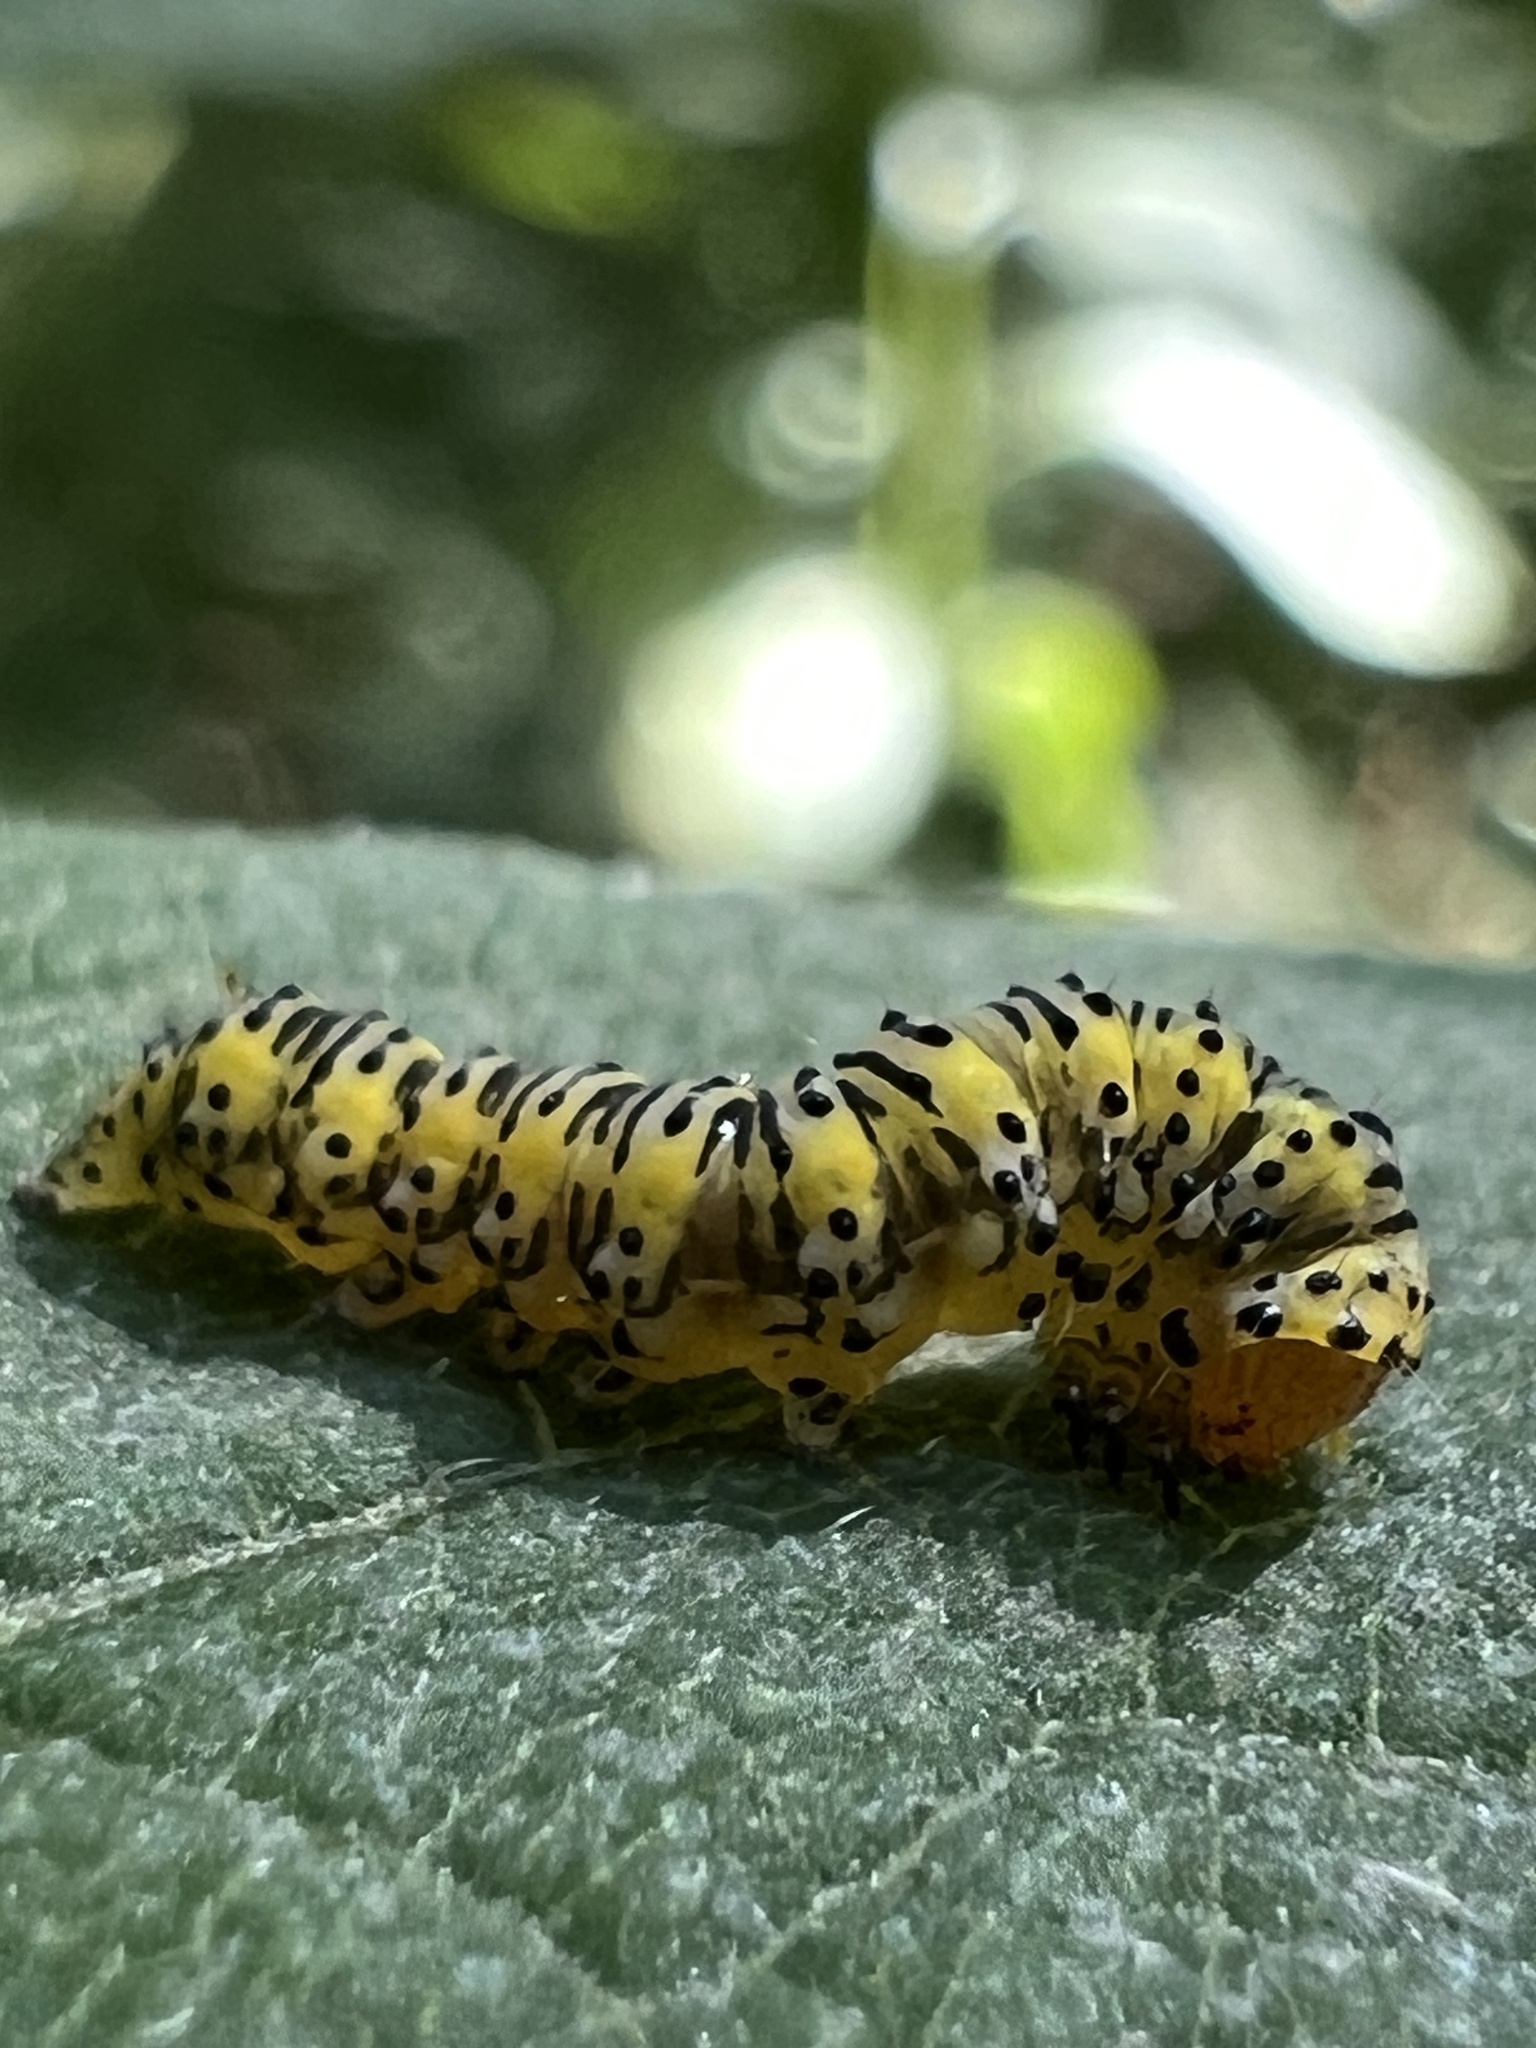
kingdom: Animalia
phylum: Arthropoda
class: Insecta
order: Lepidoptera
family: Noctuidae
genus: Basilodes
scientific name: Basilodes pepita
